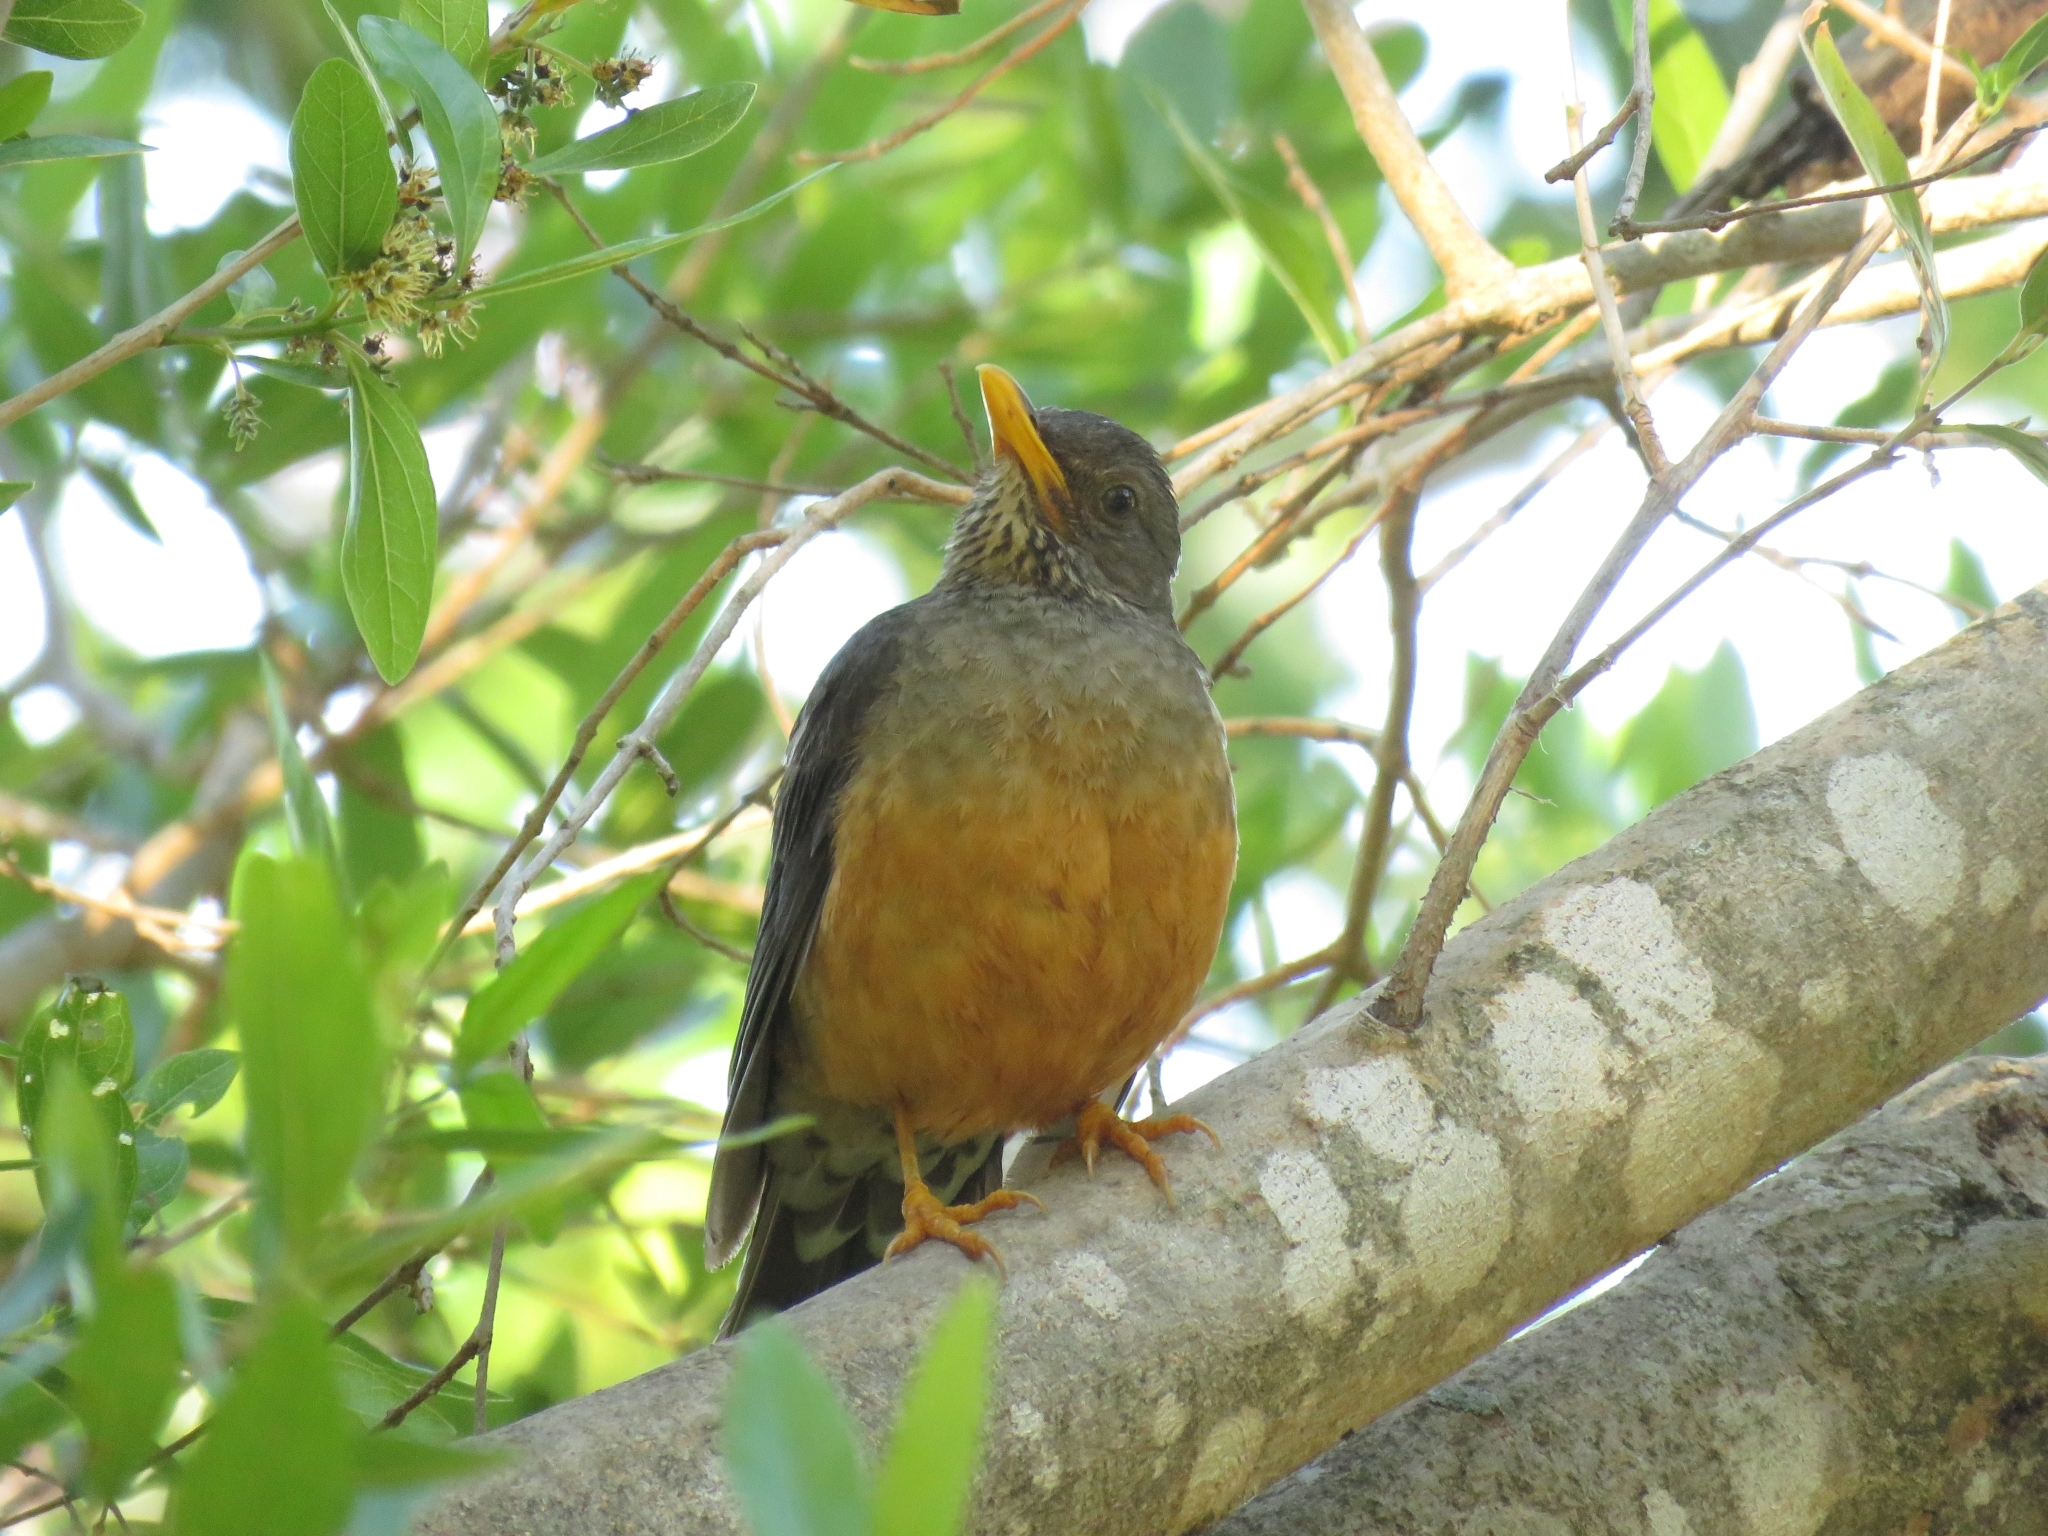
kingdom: Animalia
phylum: Chordata
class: Aves
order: Passeriformes
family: Turdidae
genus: Turdus
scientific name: Turdus olivaceus
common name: Olive thrush
